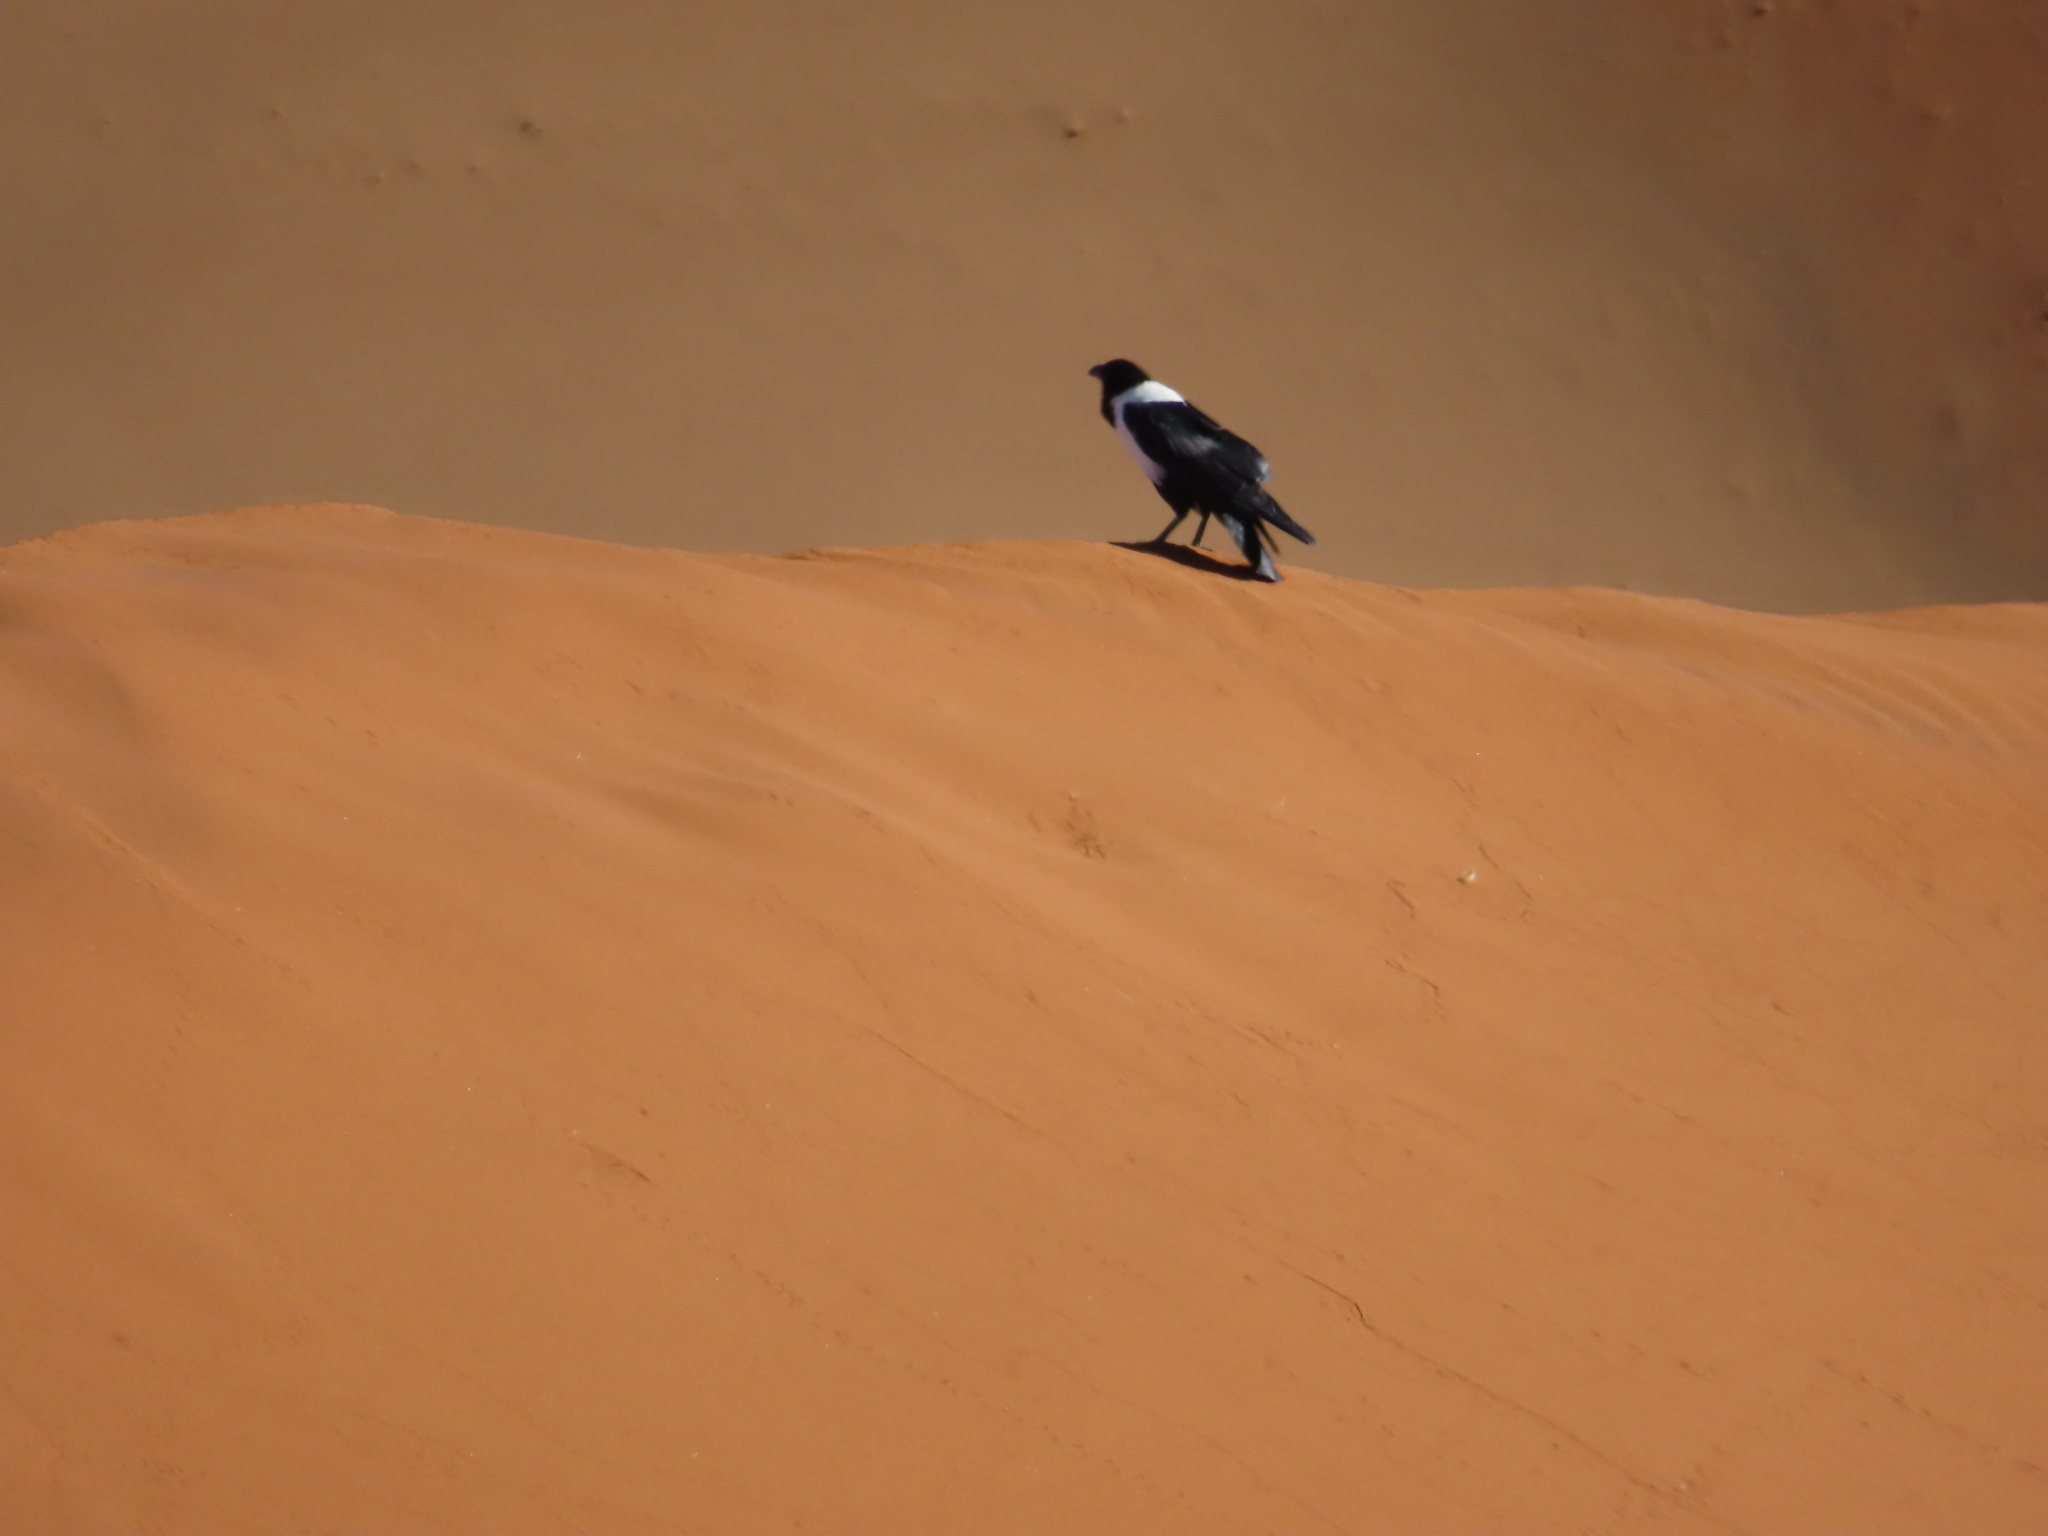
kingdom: Animalia
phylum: Chordata
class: Aves
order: Passeriformes
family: Corvidae
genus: Corvus
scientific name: Corvus albus
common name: Pied crow
